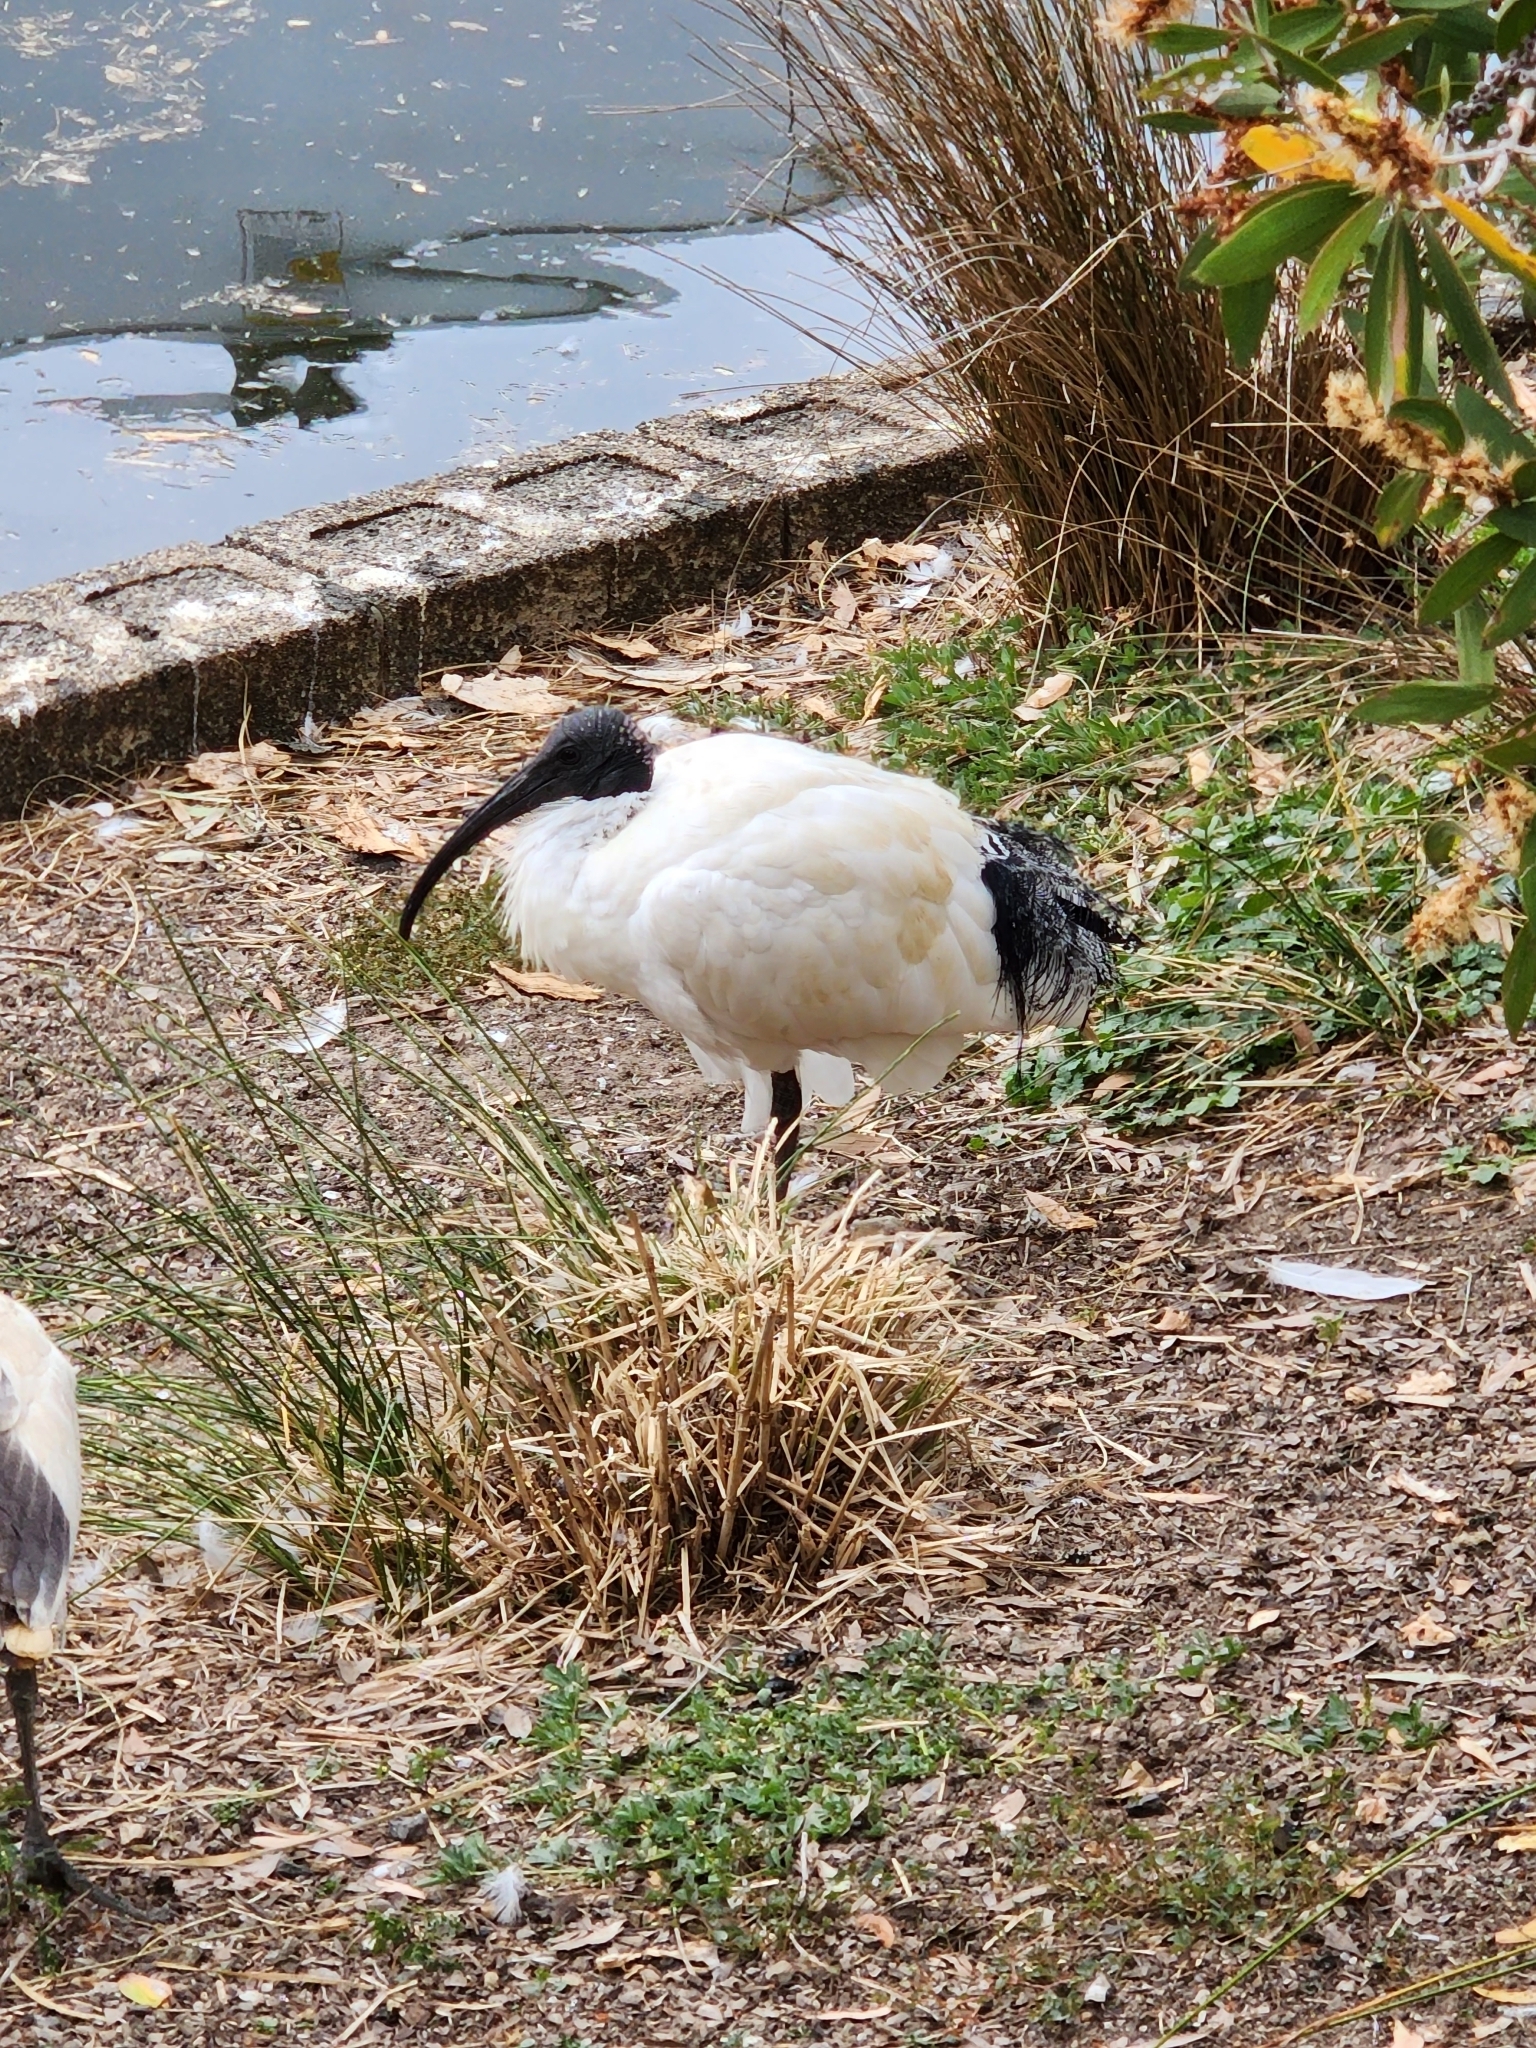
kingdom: Animalia
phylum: Chordata
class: Aves
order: Pelecaniformes
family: Threskiornithidae
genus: Threskiornis
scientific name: Threskiornis molucca
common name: Australian white ibis
